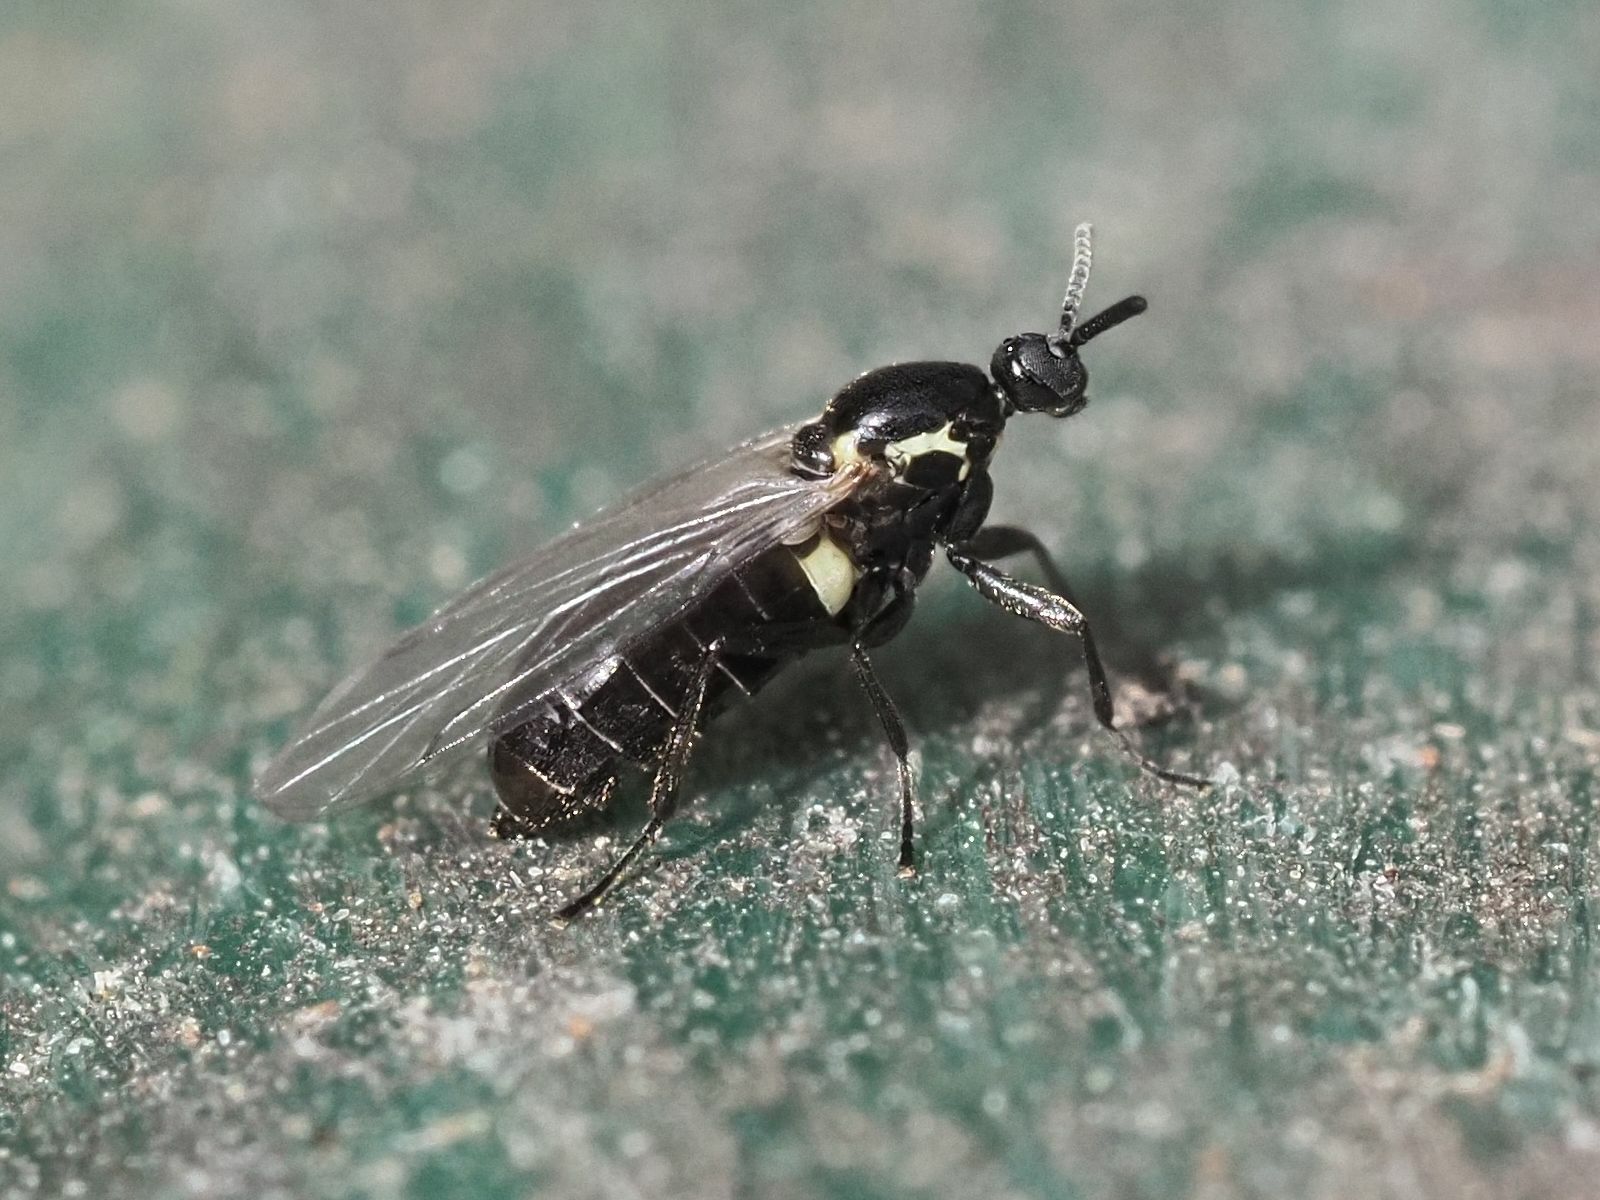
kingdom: Animalia
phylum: Arthropoda
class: Insecta
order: Diptera
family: Scatopsidae
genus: Scatopse
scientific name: Scatopse notata
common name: Minute black scavenger fly
